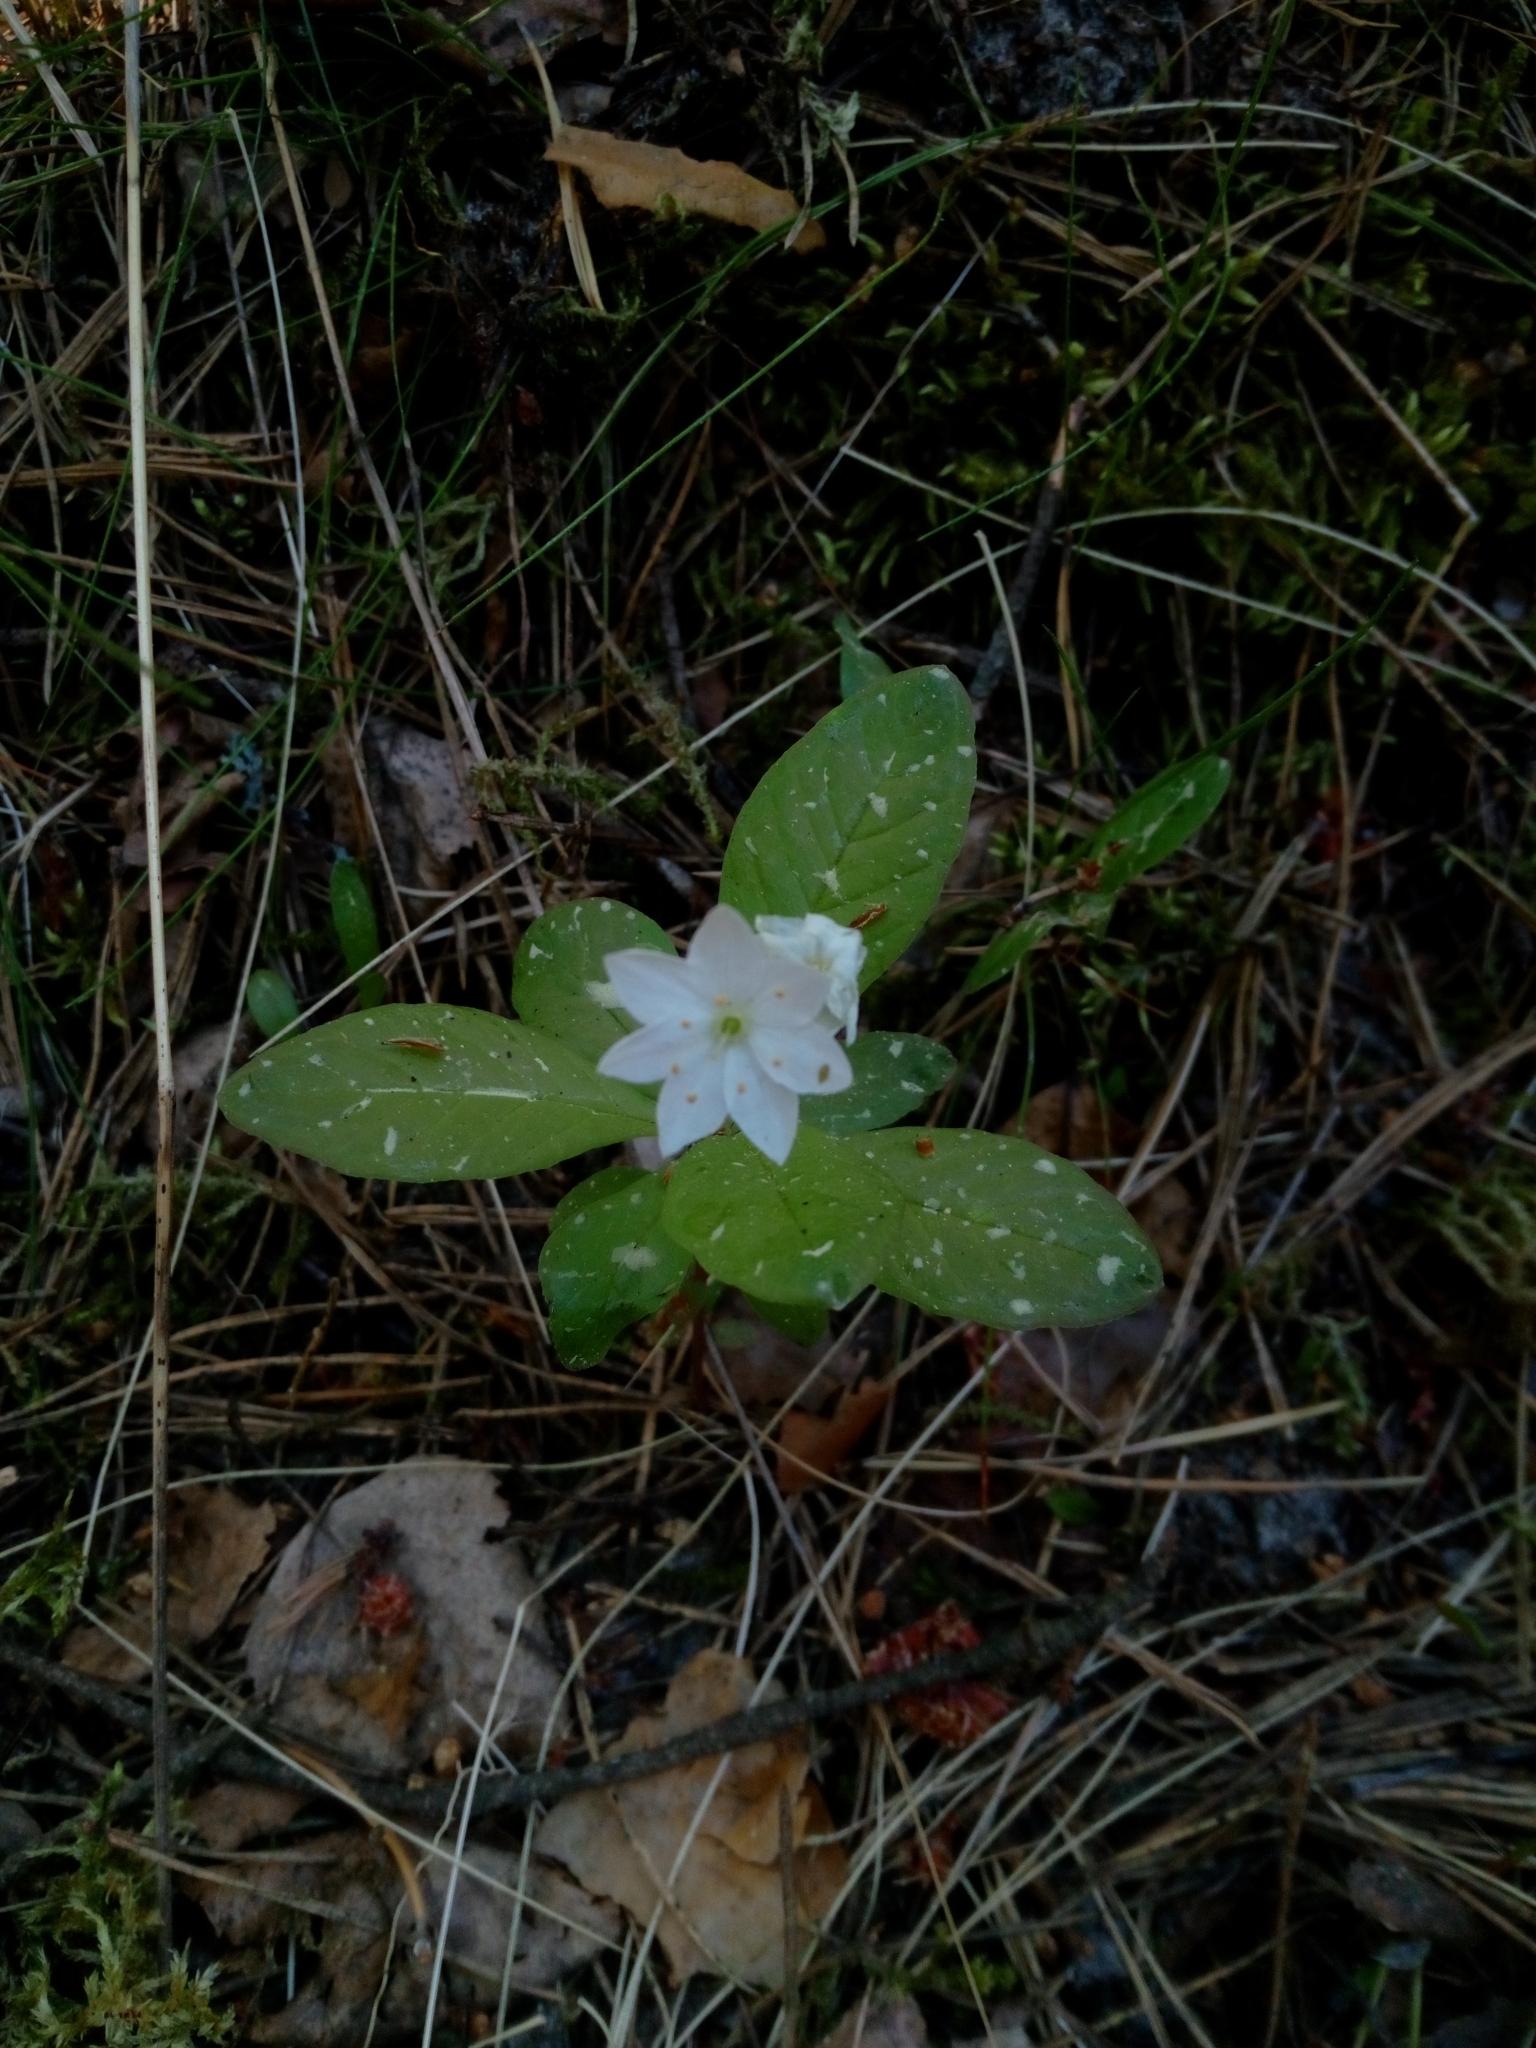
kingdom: Plantae
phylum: Tracheophyta
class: Magnoliopsida
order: Ericales
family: Primulaceae
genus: Lysimachia
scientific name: Lysimachia europaea
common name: Arctic starflower
